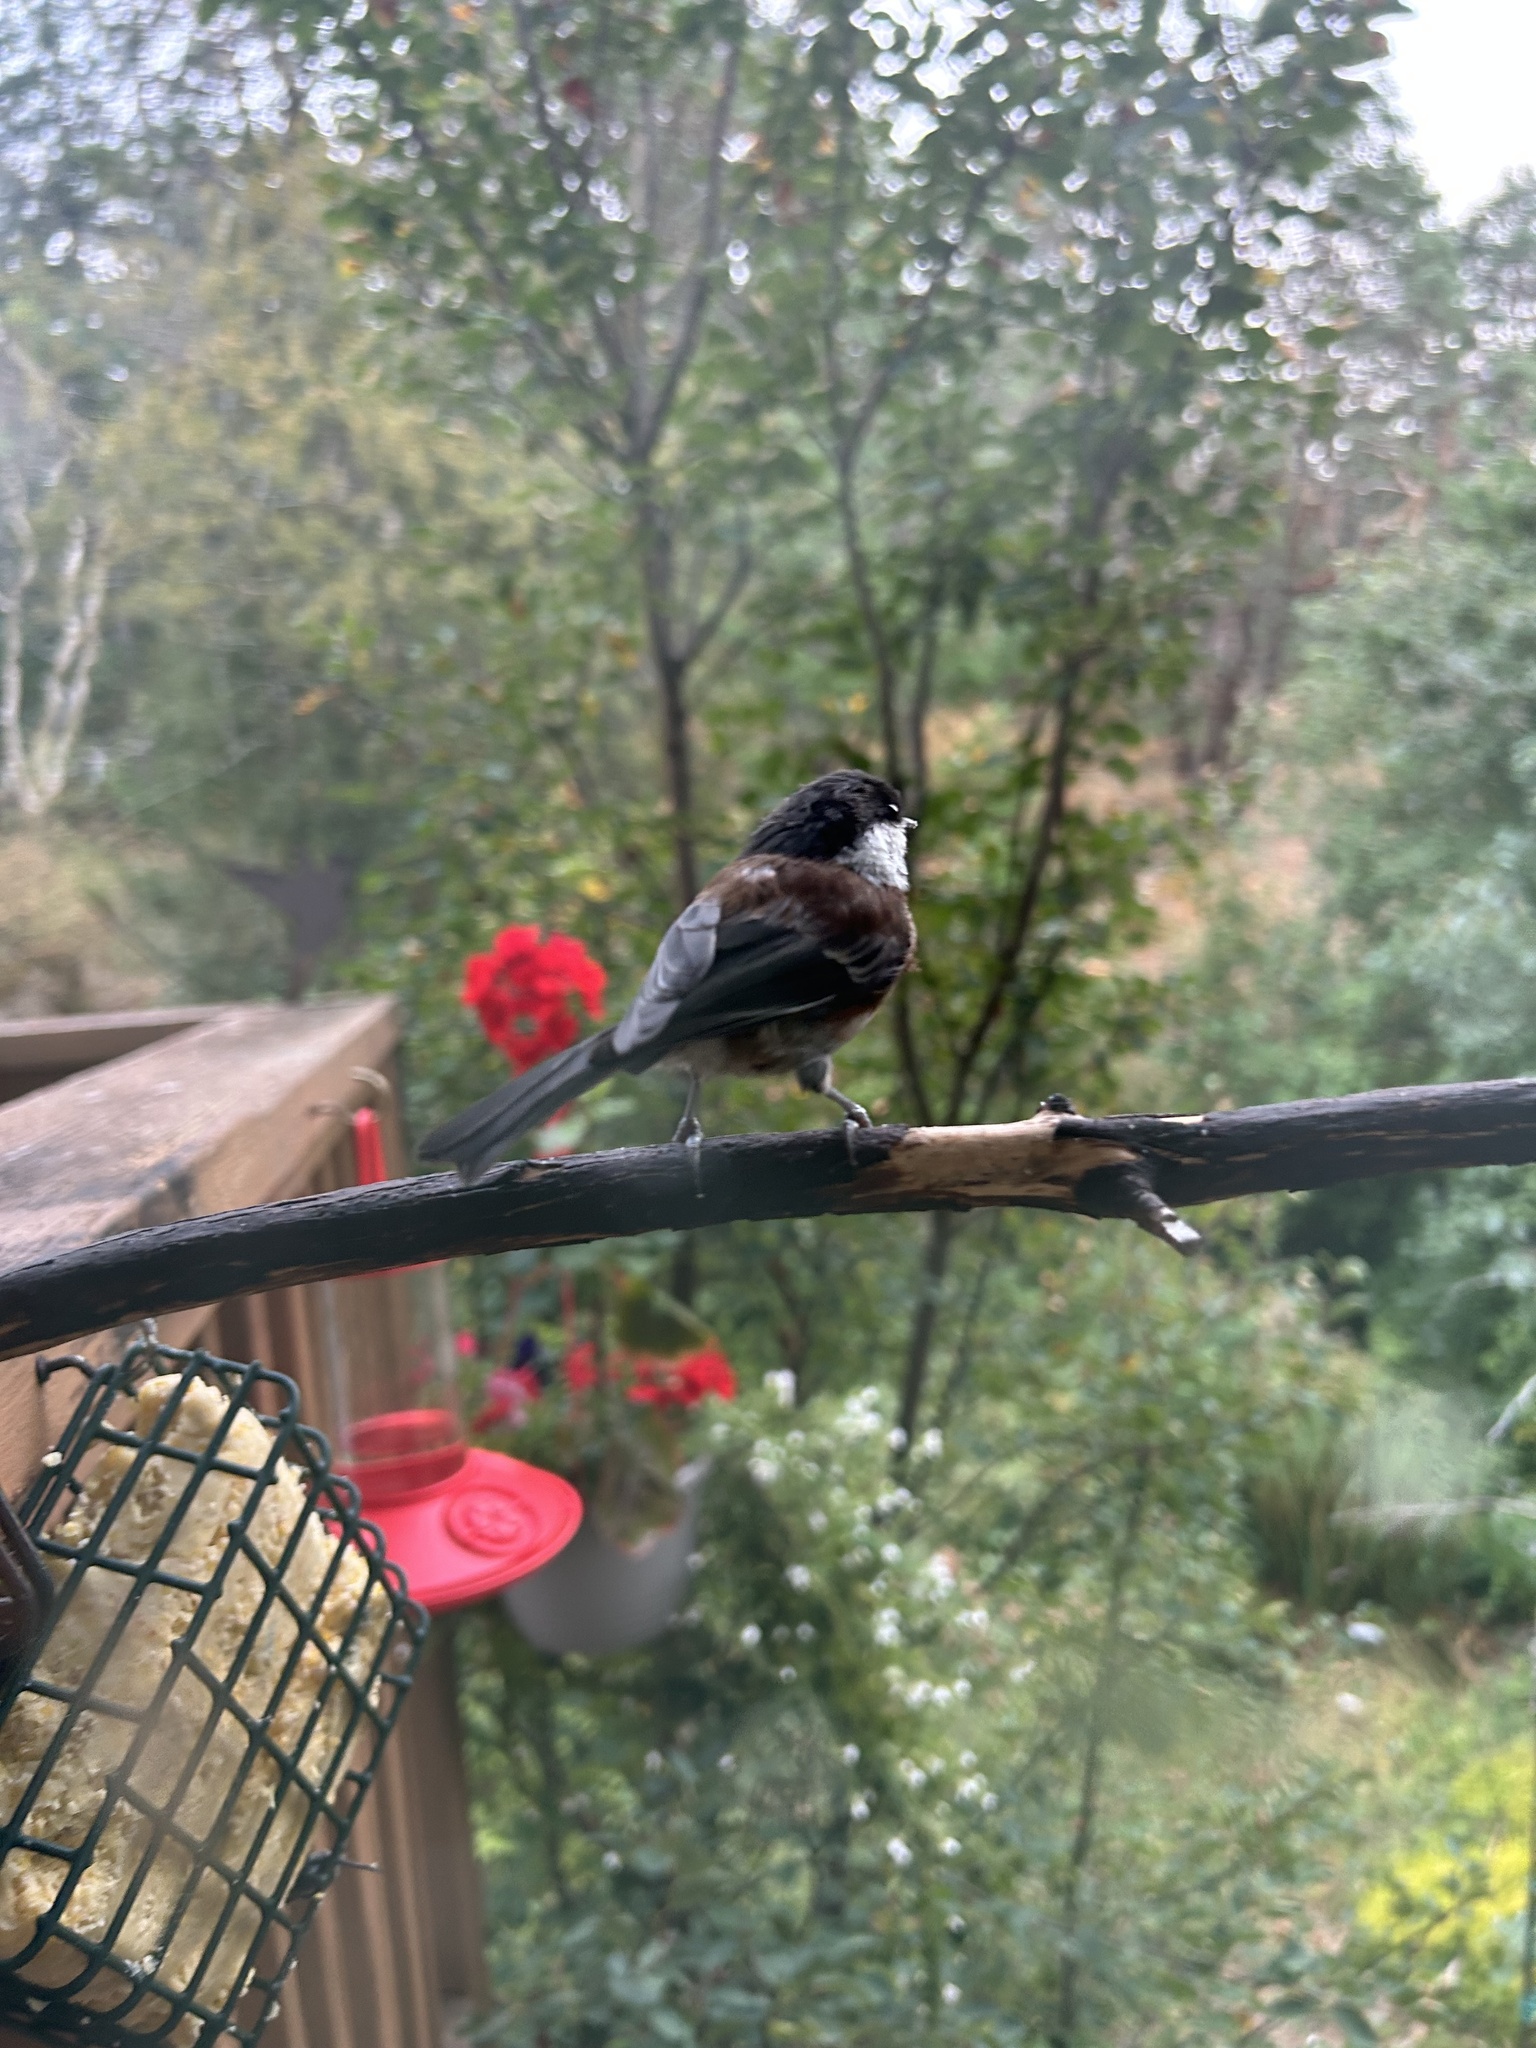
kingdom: Animalia
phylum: Chordata
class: Aves
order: Passeriformes
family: Paridae
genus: Poecile
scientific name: Poecile rufescens
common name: Chestnut-backed chickadee
